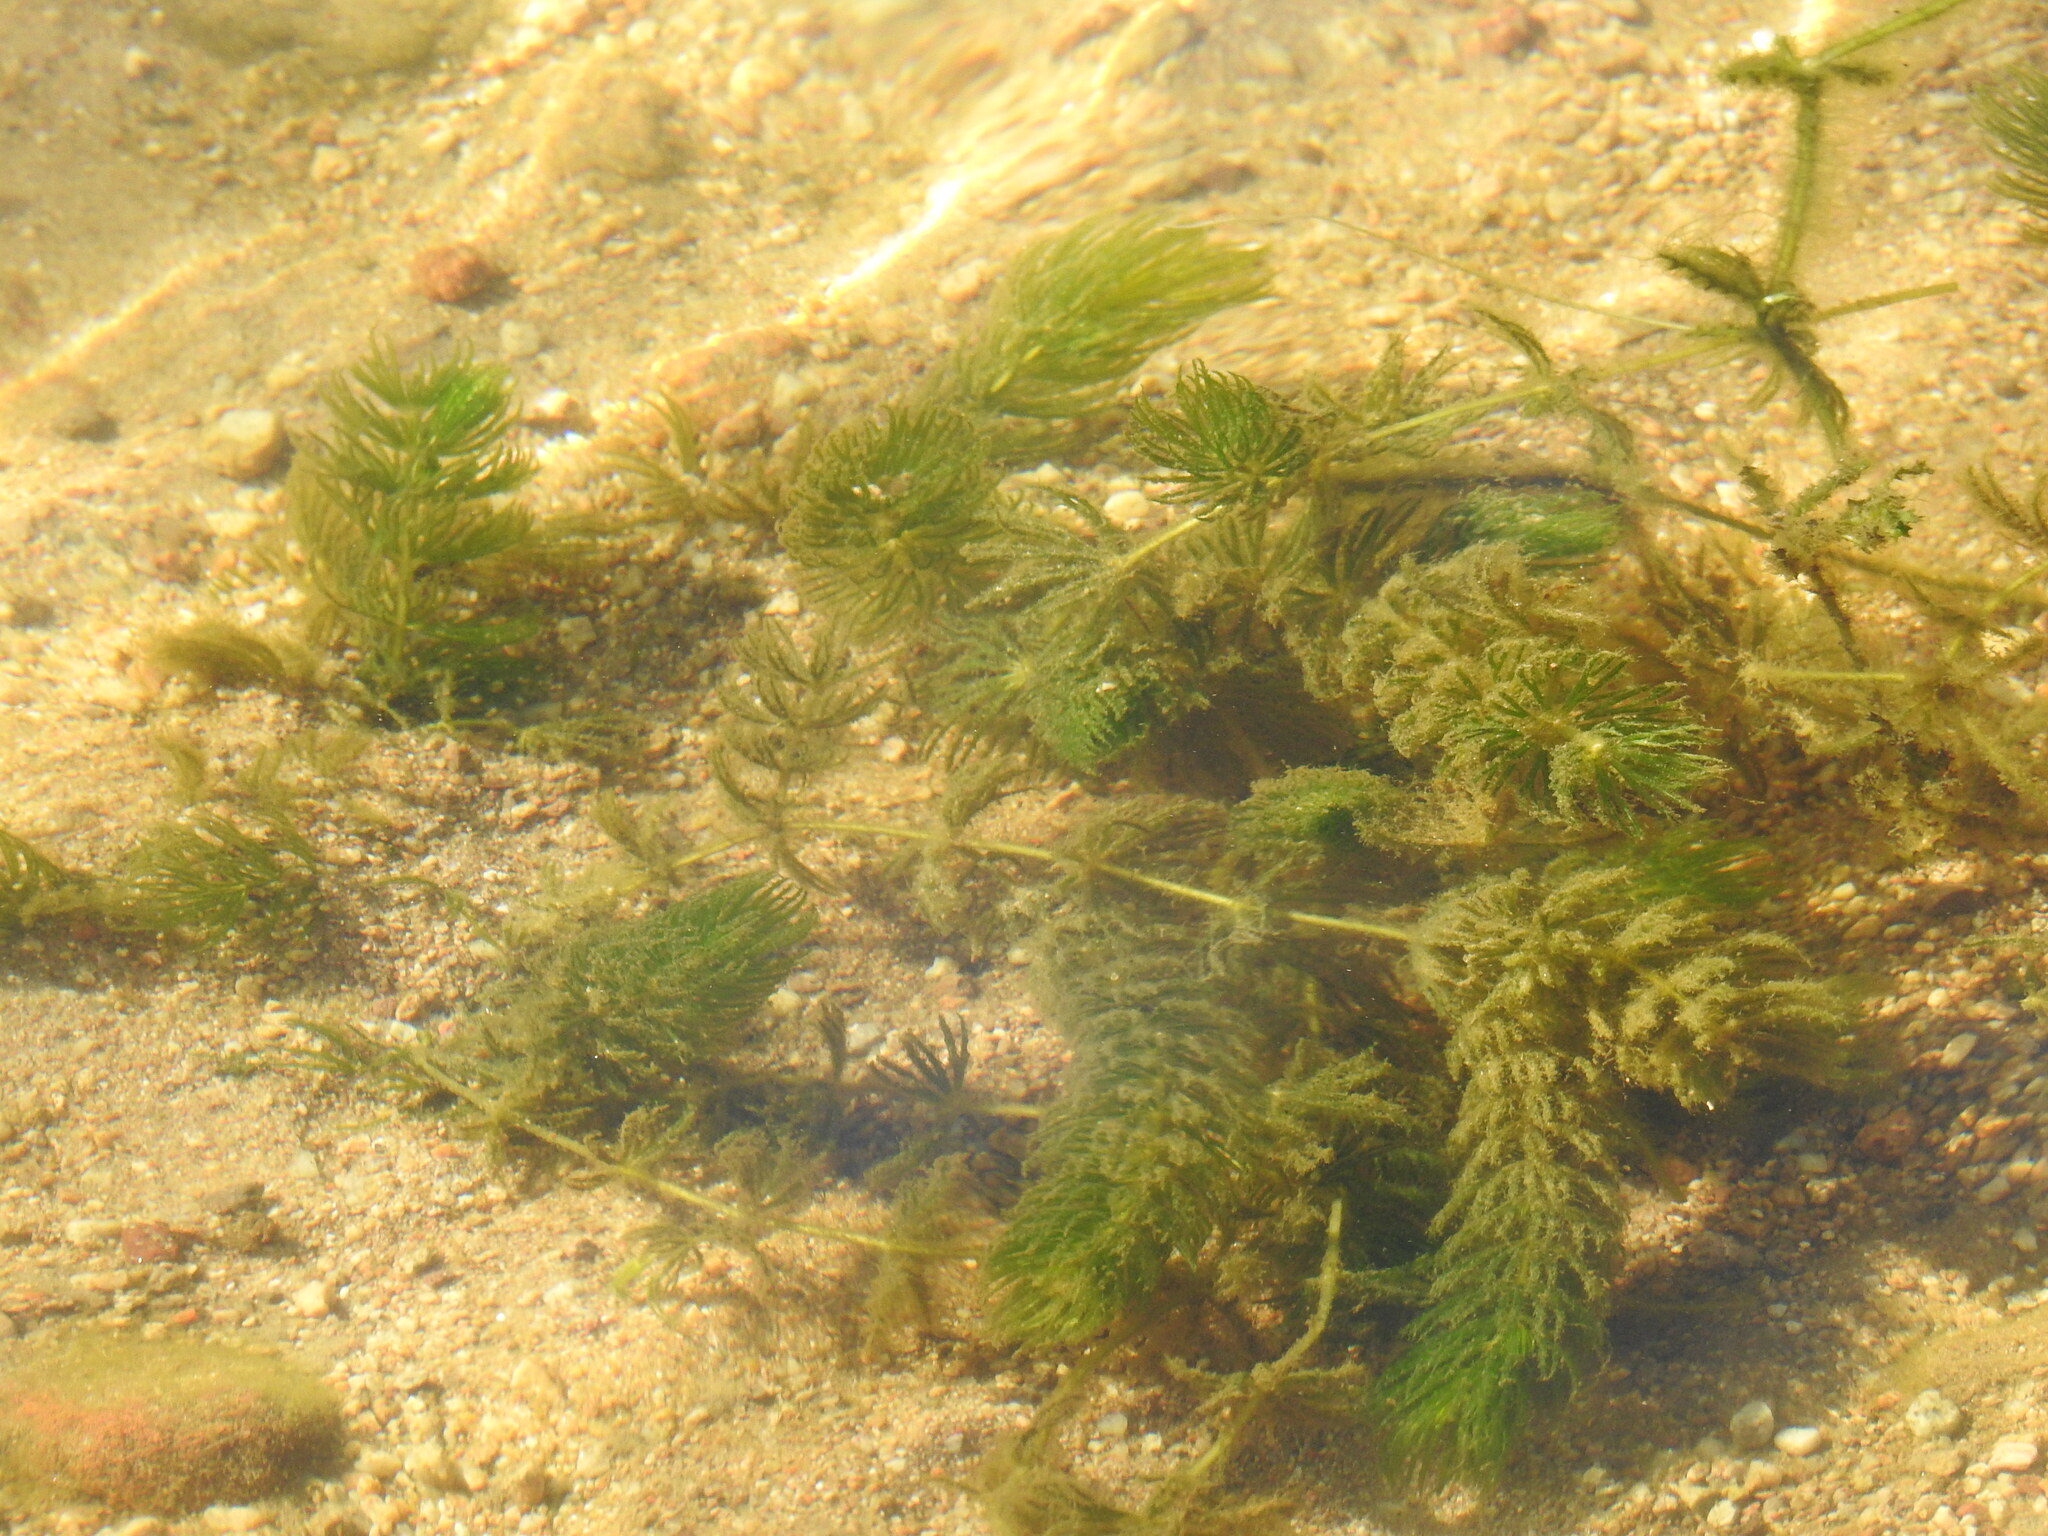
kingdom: Plantae
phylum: Tracheophyta
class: Magnoliopsida
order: Ceratophyllales
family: Ceratophyllaceae
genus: Ceratophyllum
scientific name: Ceratophyllum demersum
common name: Rigid hornwort
